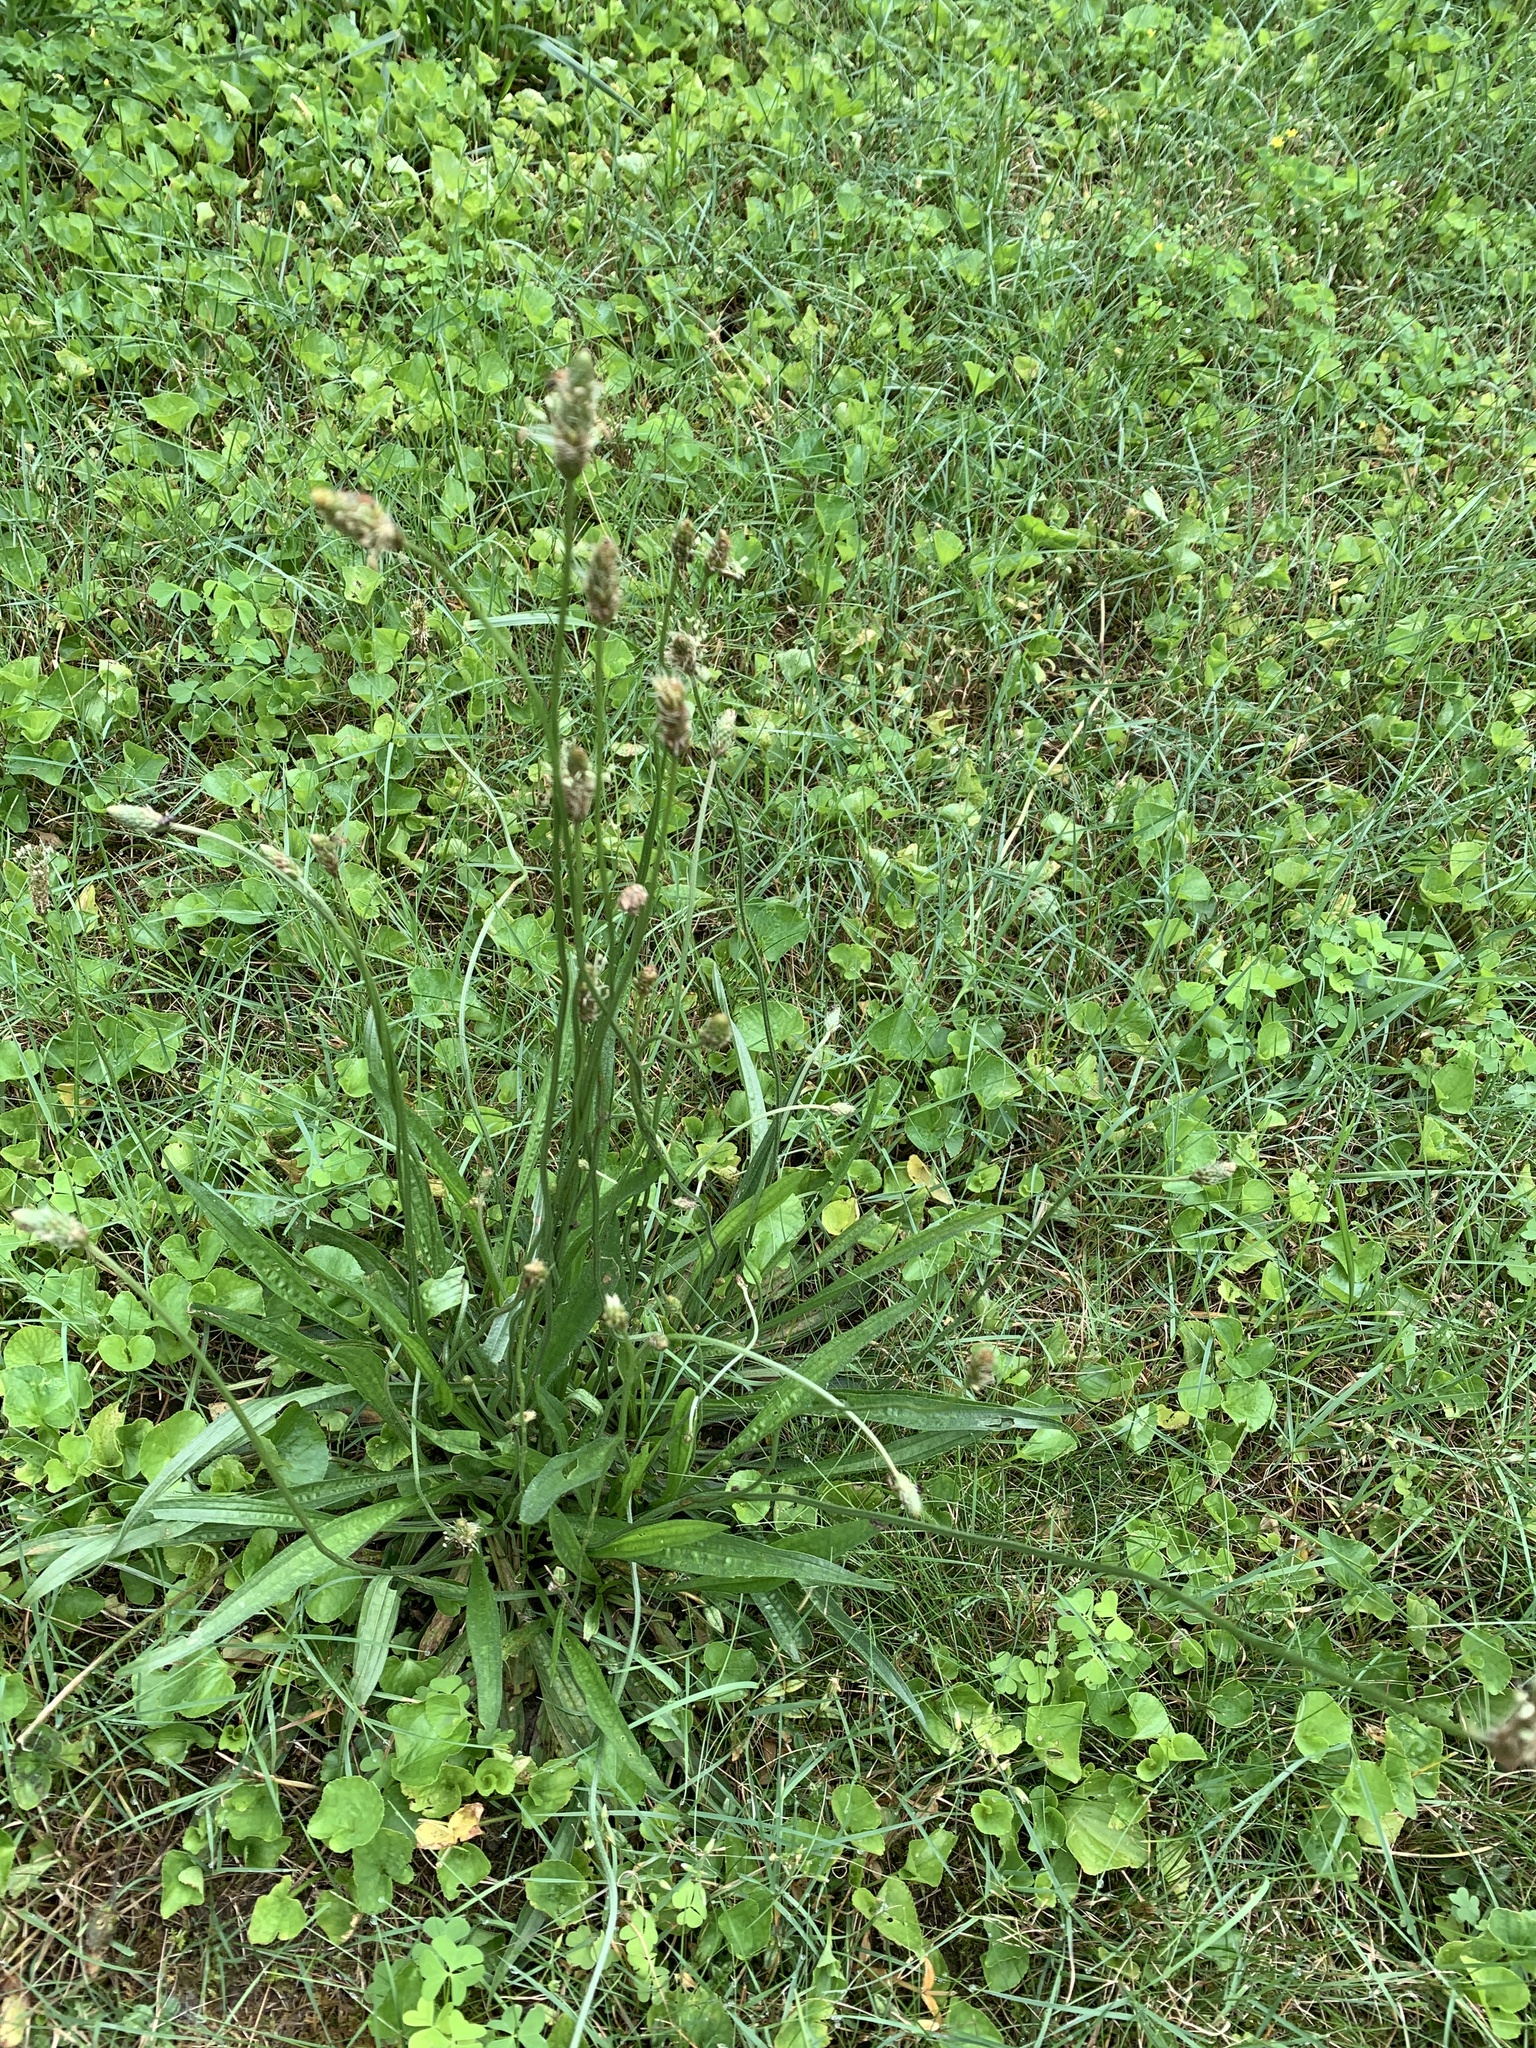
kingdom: Plantae
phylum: Tracheophyta
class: Magnoliopsida
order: Lamiales
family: Plantaginaceae
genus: Plantago
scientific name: Plantago lanceolata
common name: Ribwort plantain
